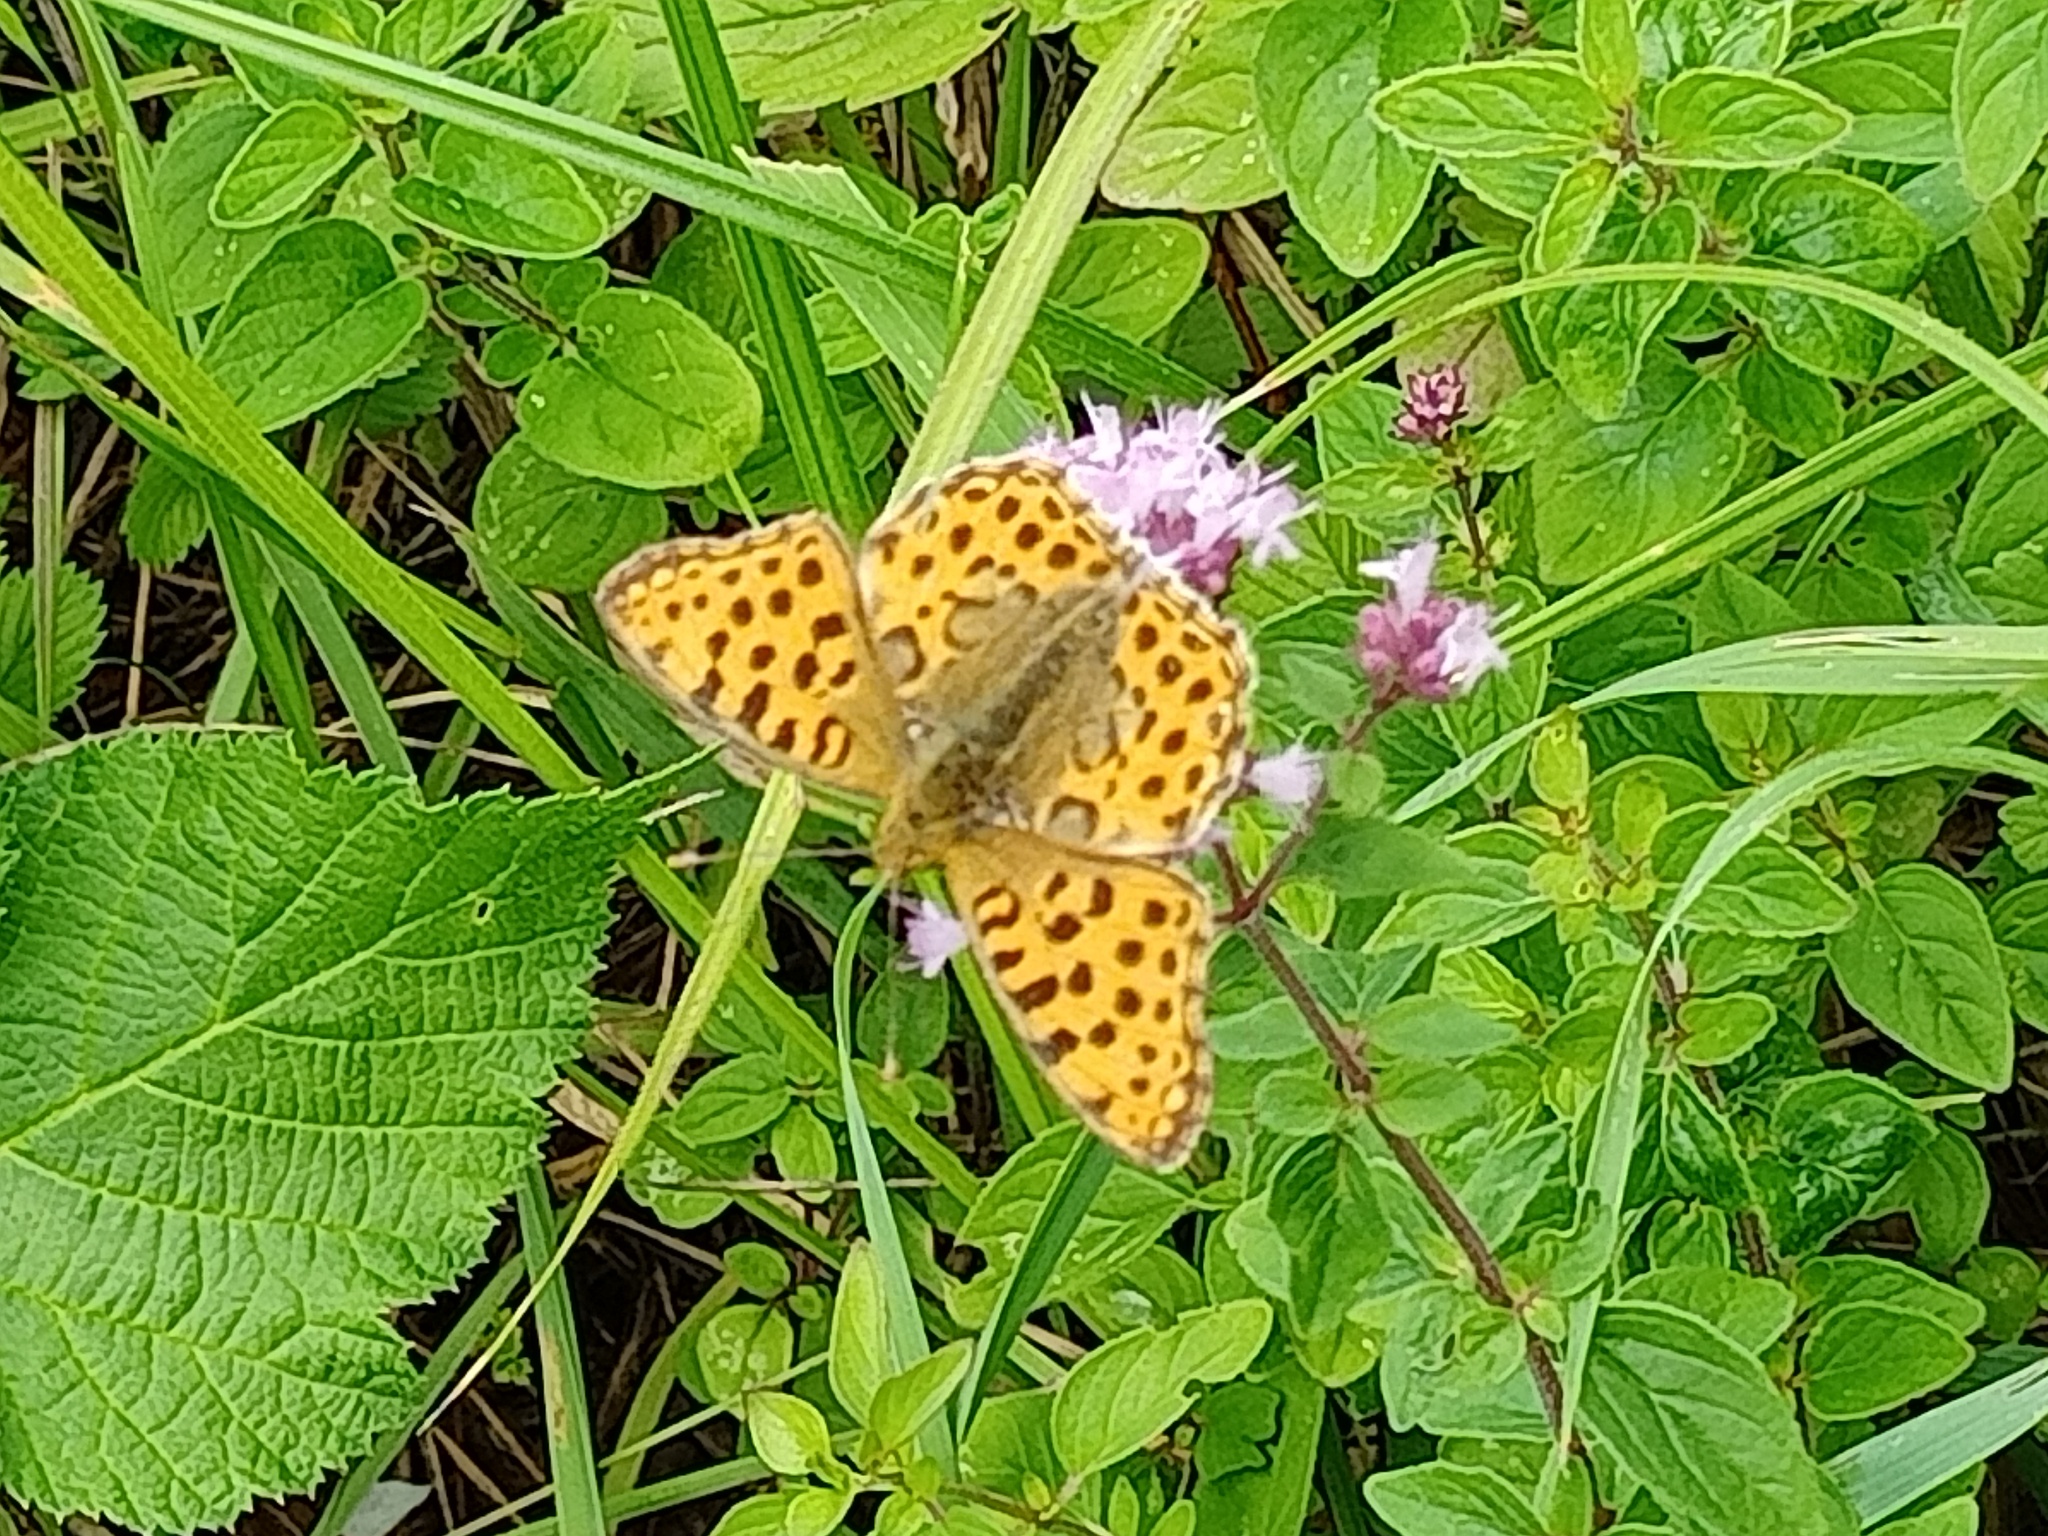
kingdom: Animalia
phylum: Arthropoda
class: Insecta
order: Lepidoptera
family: Nymphalidae
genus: Issoria
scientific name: Issoria lathonia
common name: Queen of spain fritillary
